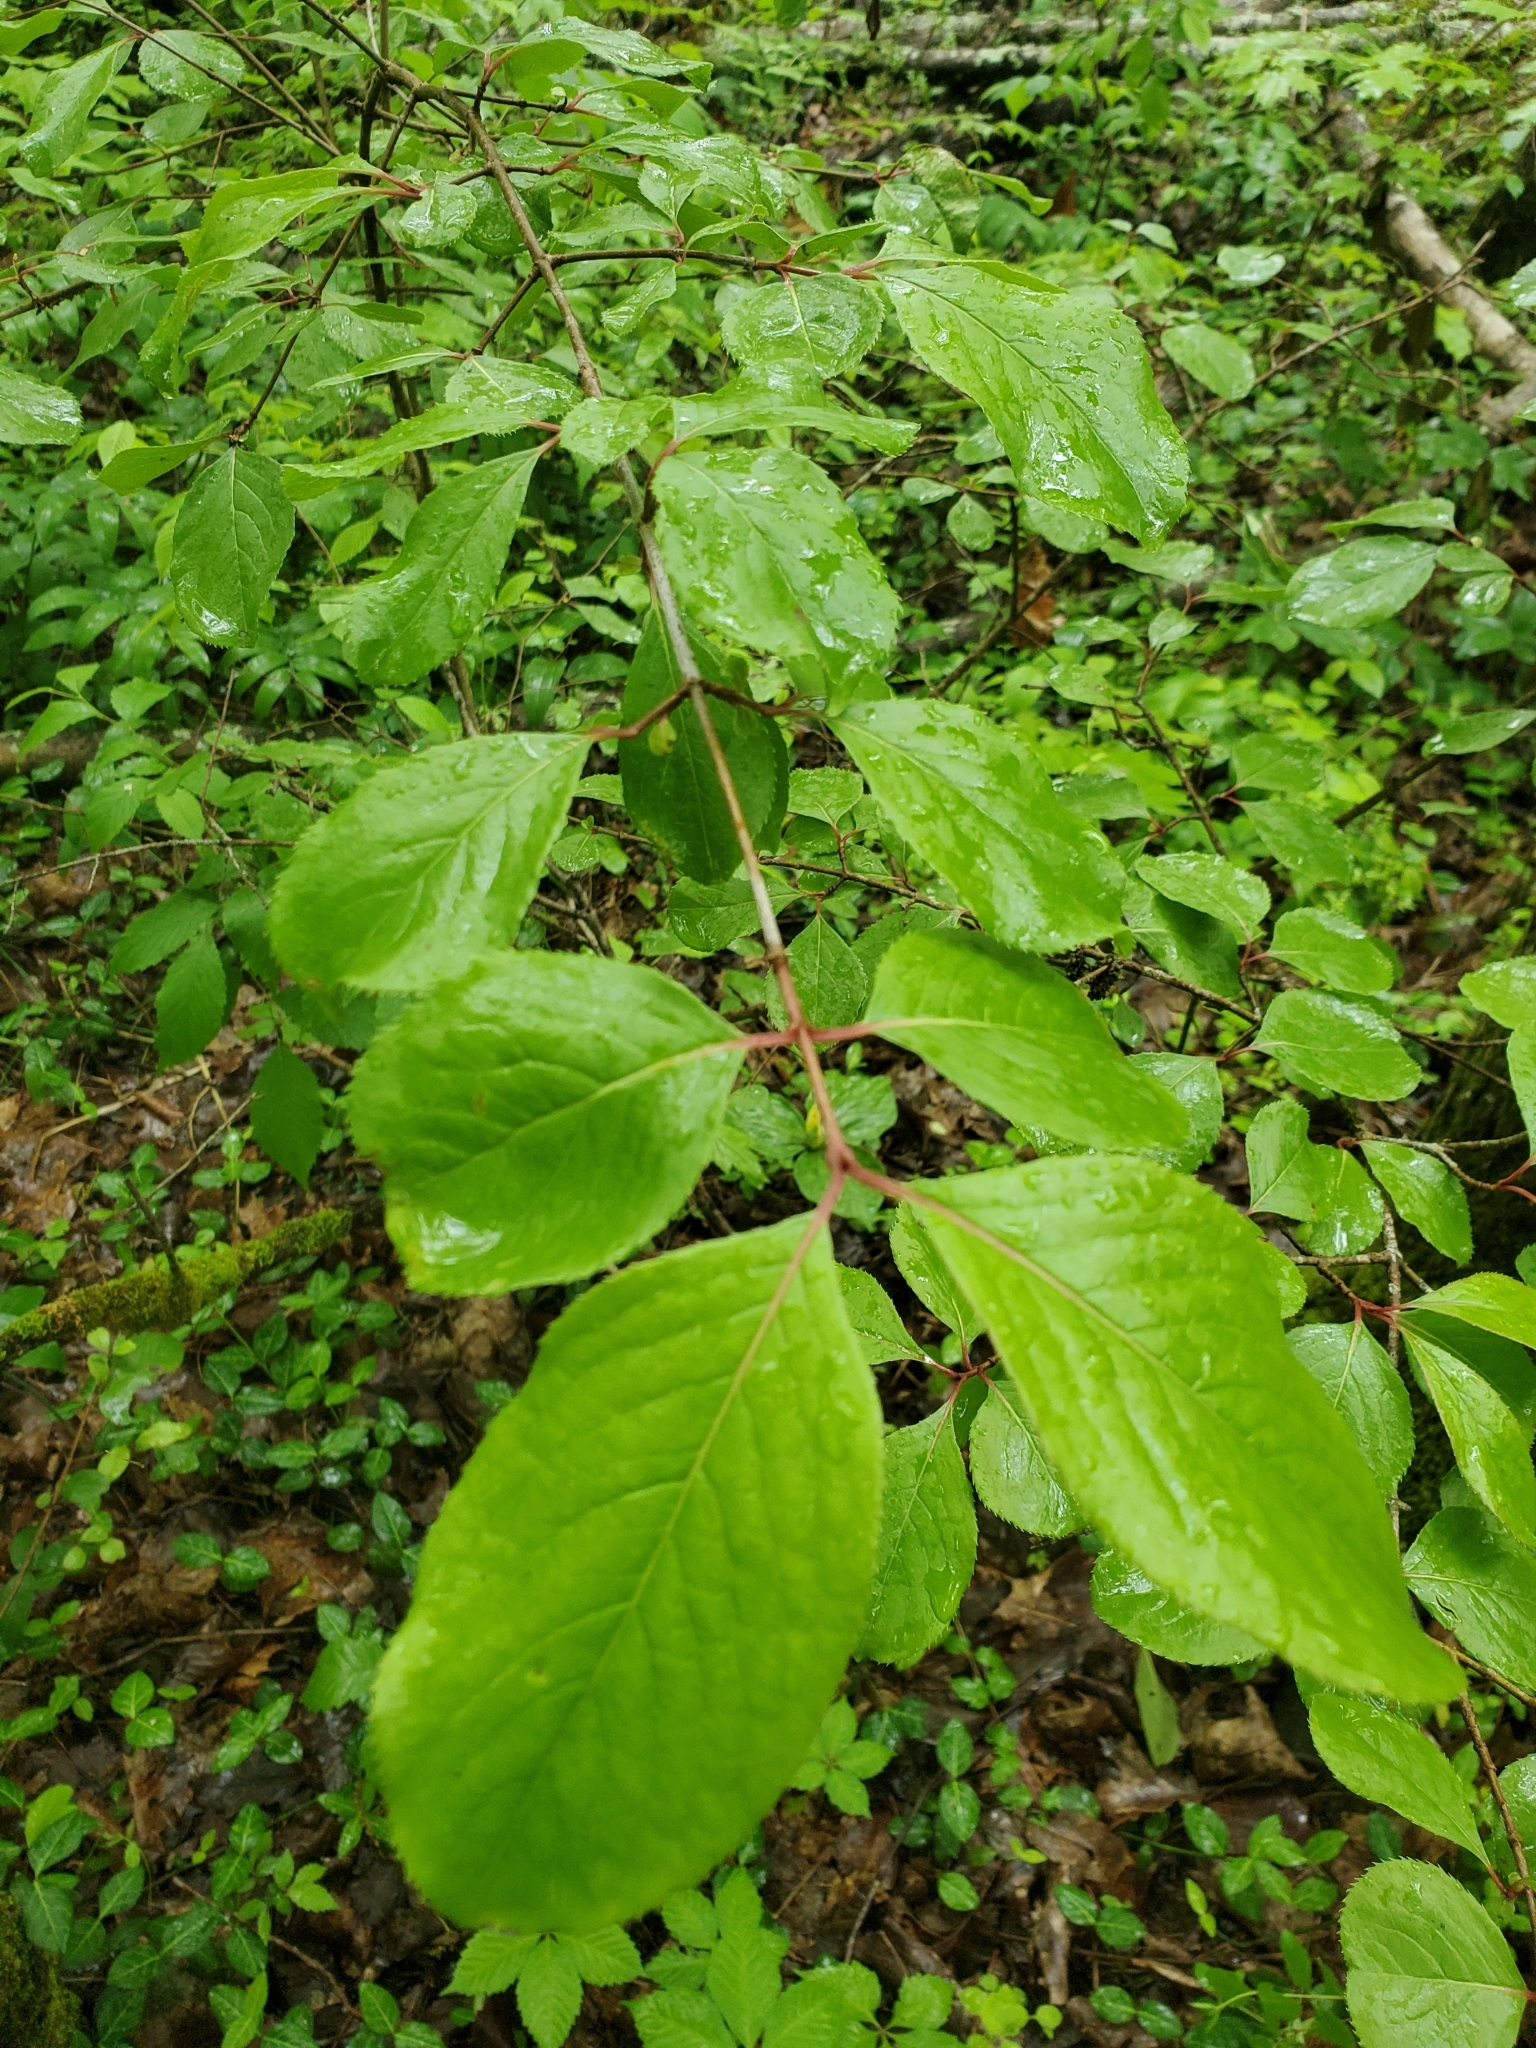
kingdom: Plantae
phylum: Tracheophyta
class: Magnoliopsida
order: Dipsacales
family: Viburnaceae
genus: Viburnum
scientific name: Viburnum rufidulum
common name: Blue haw
